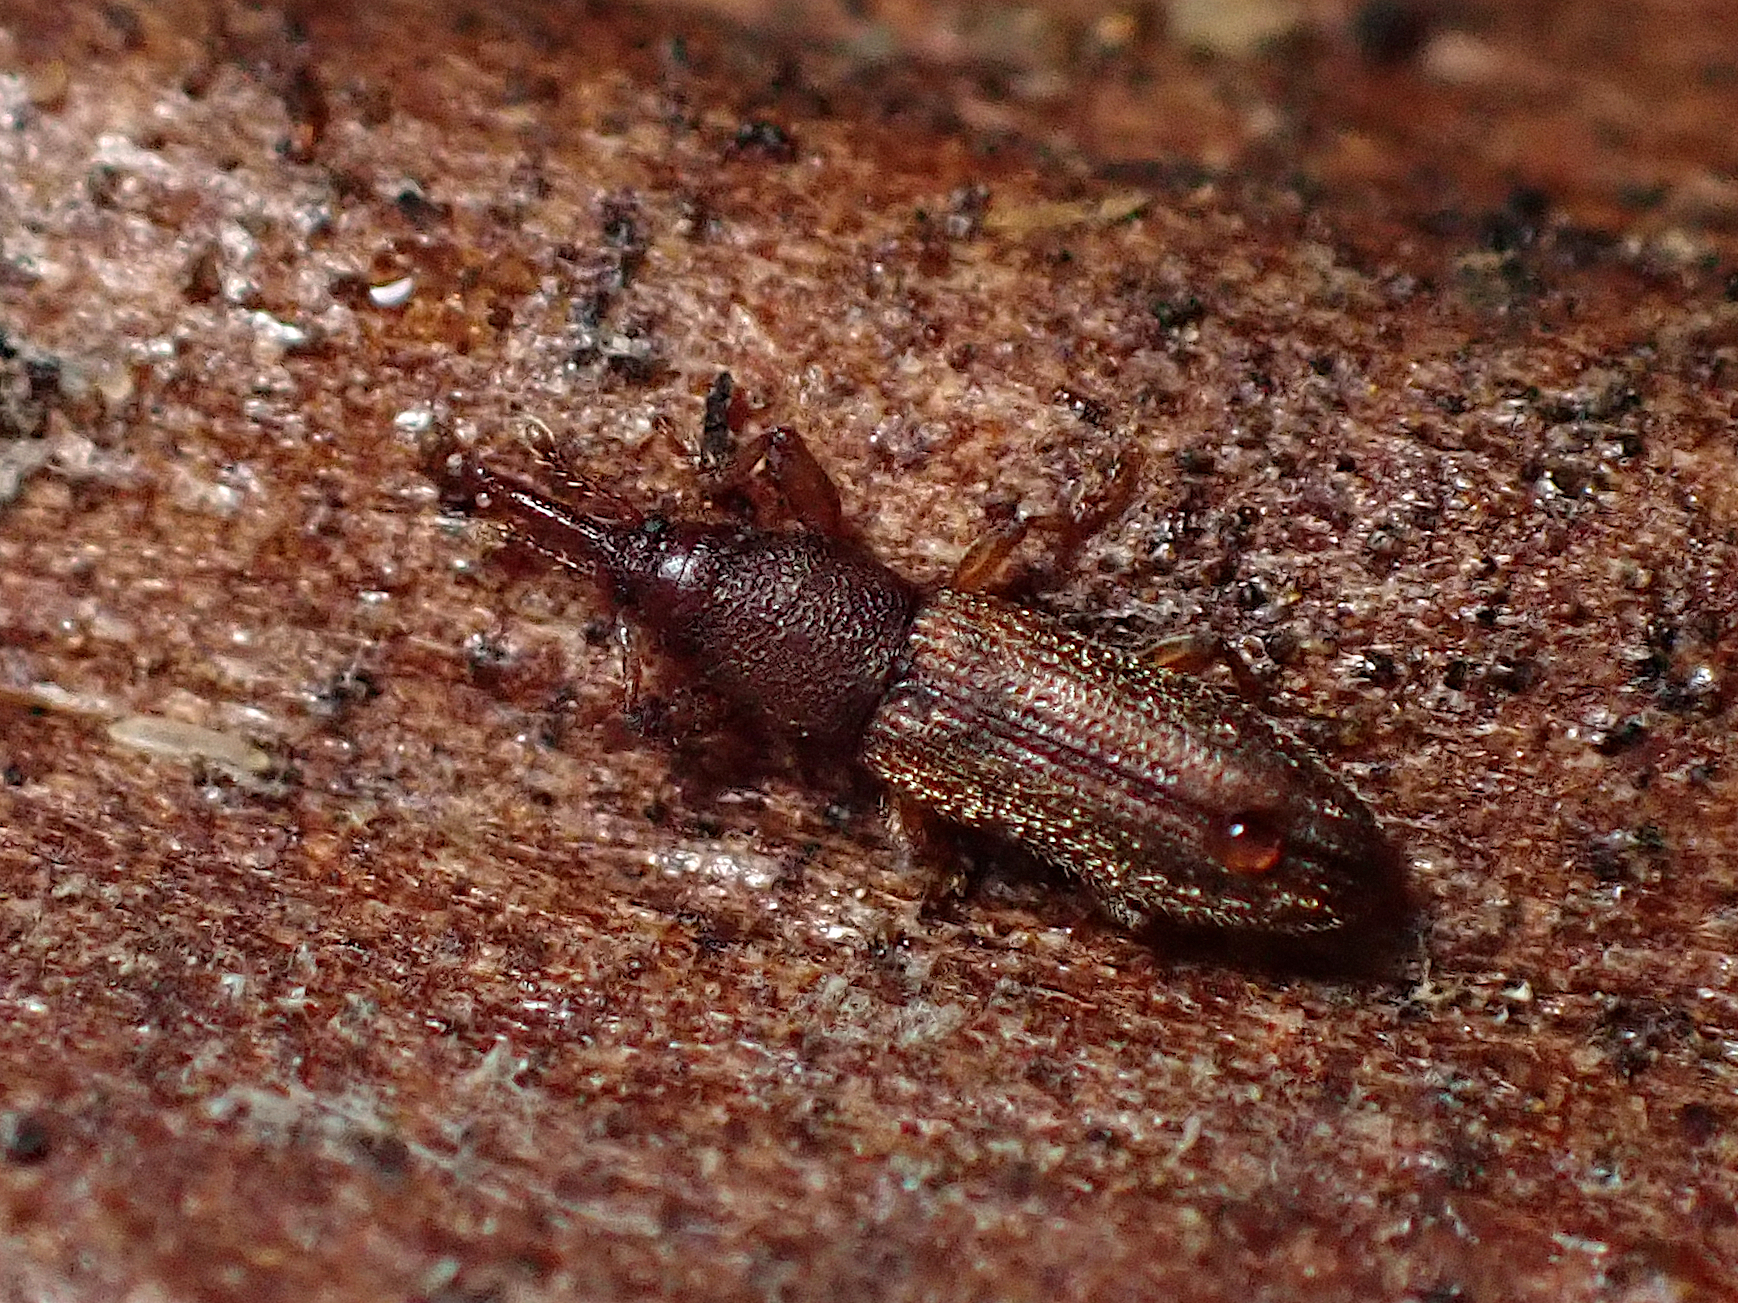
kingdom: Animalia
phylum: Arthropoda
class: Insecta
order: Coleoptera
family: Curculionidae
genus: Arecocryptus
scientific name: Arecocryptus bellus
